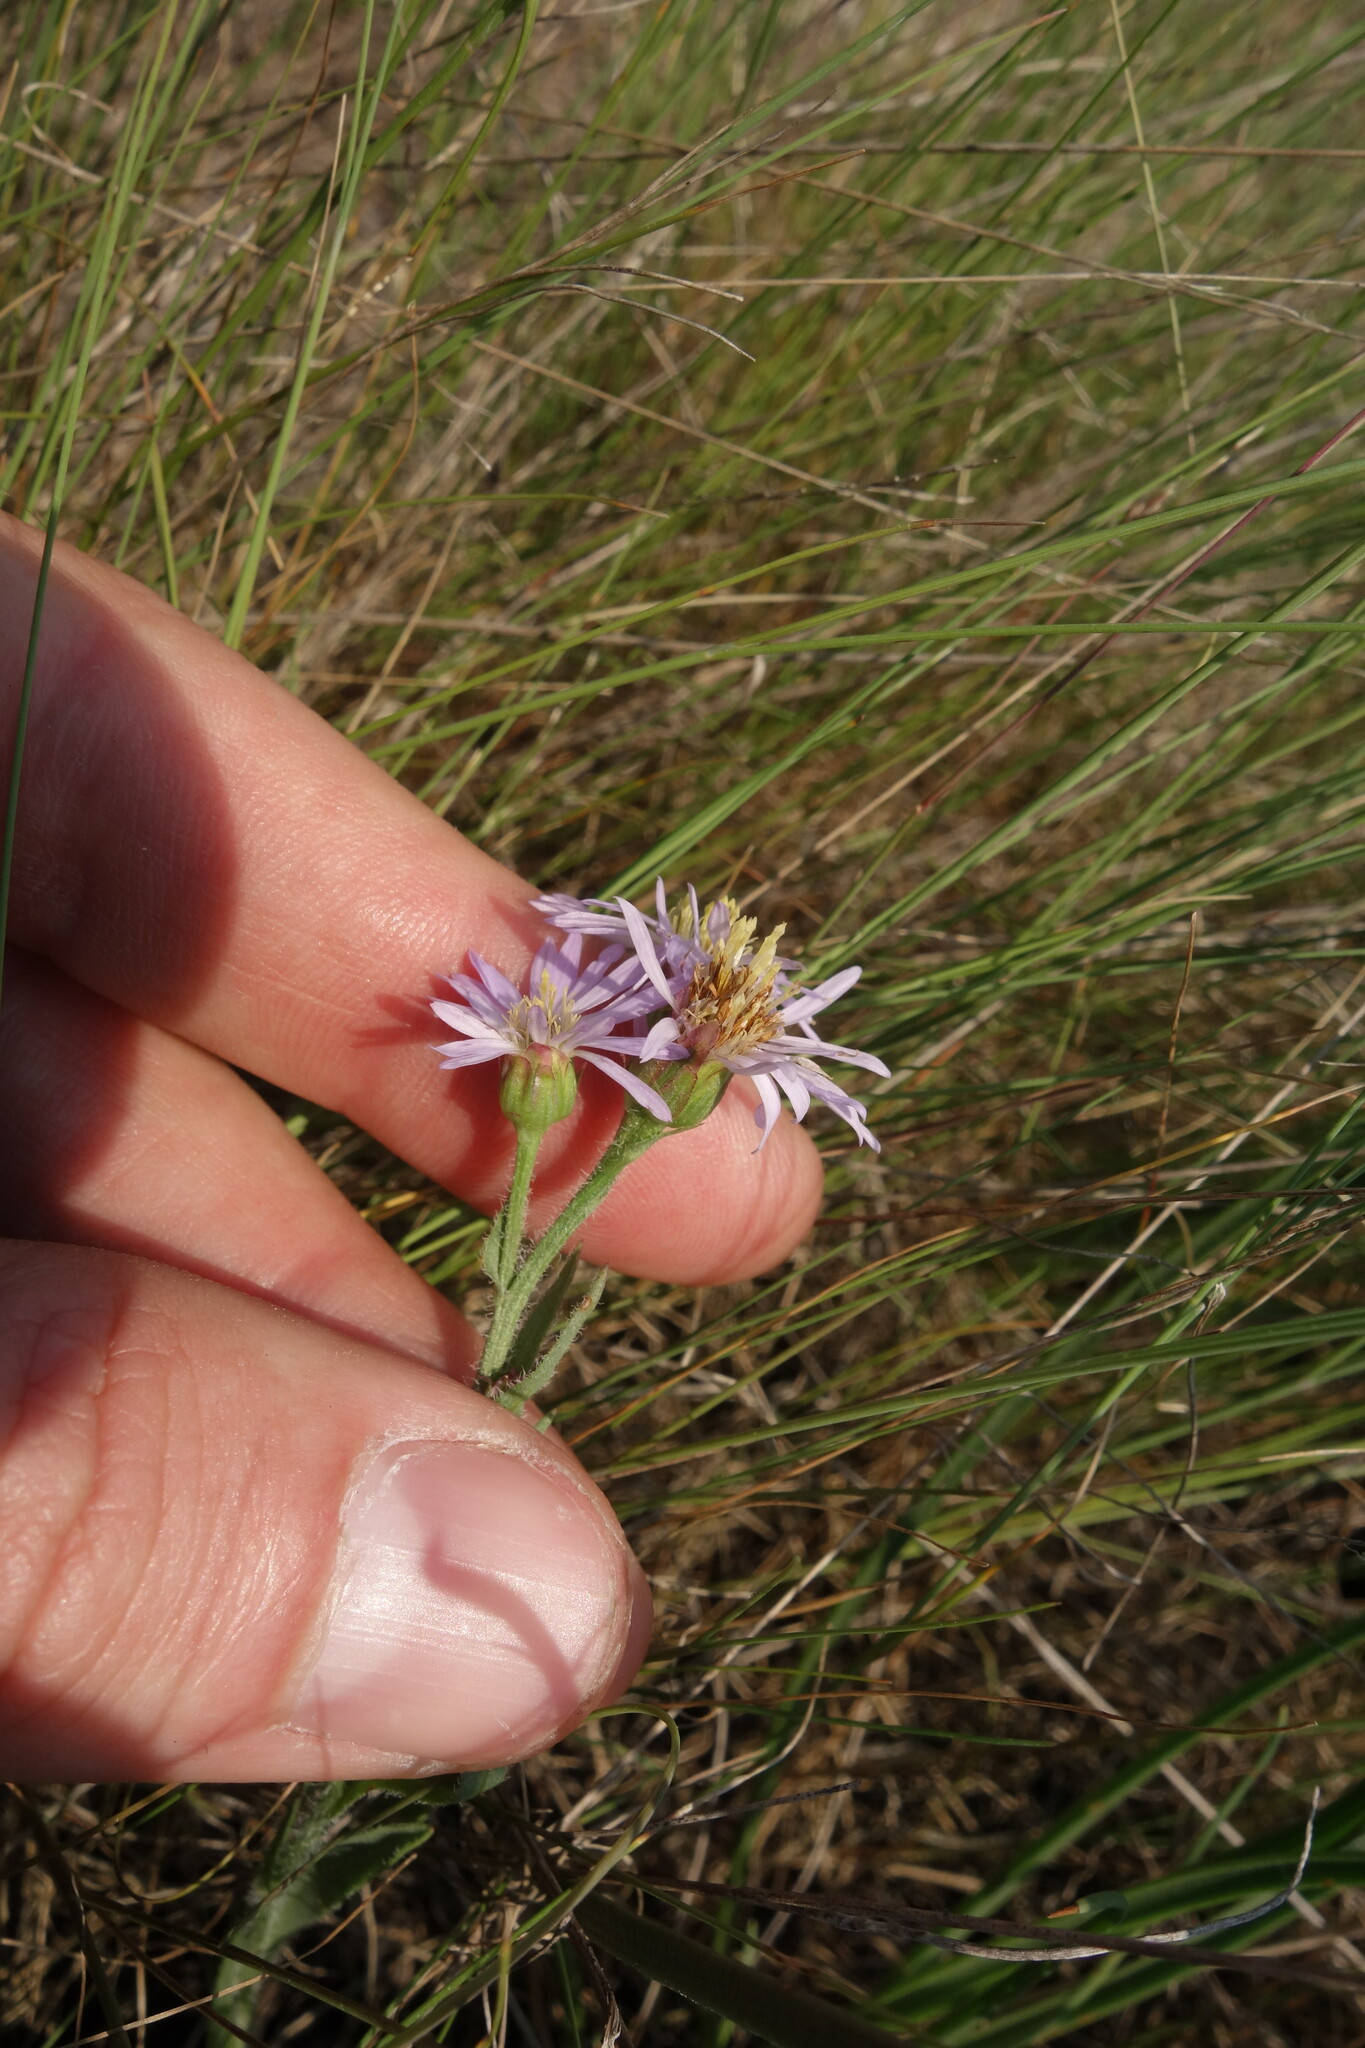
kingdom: Plantae
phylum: Tracheophyta
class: Magnoliopsida
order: Asterales
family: Asteraceae
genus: Tripolium
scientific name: Tripolium pannonicum
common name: Sea aster
